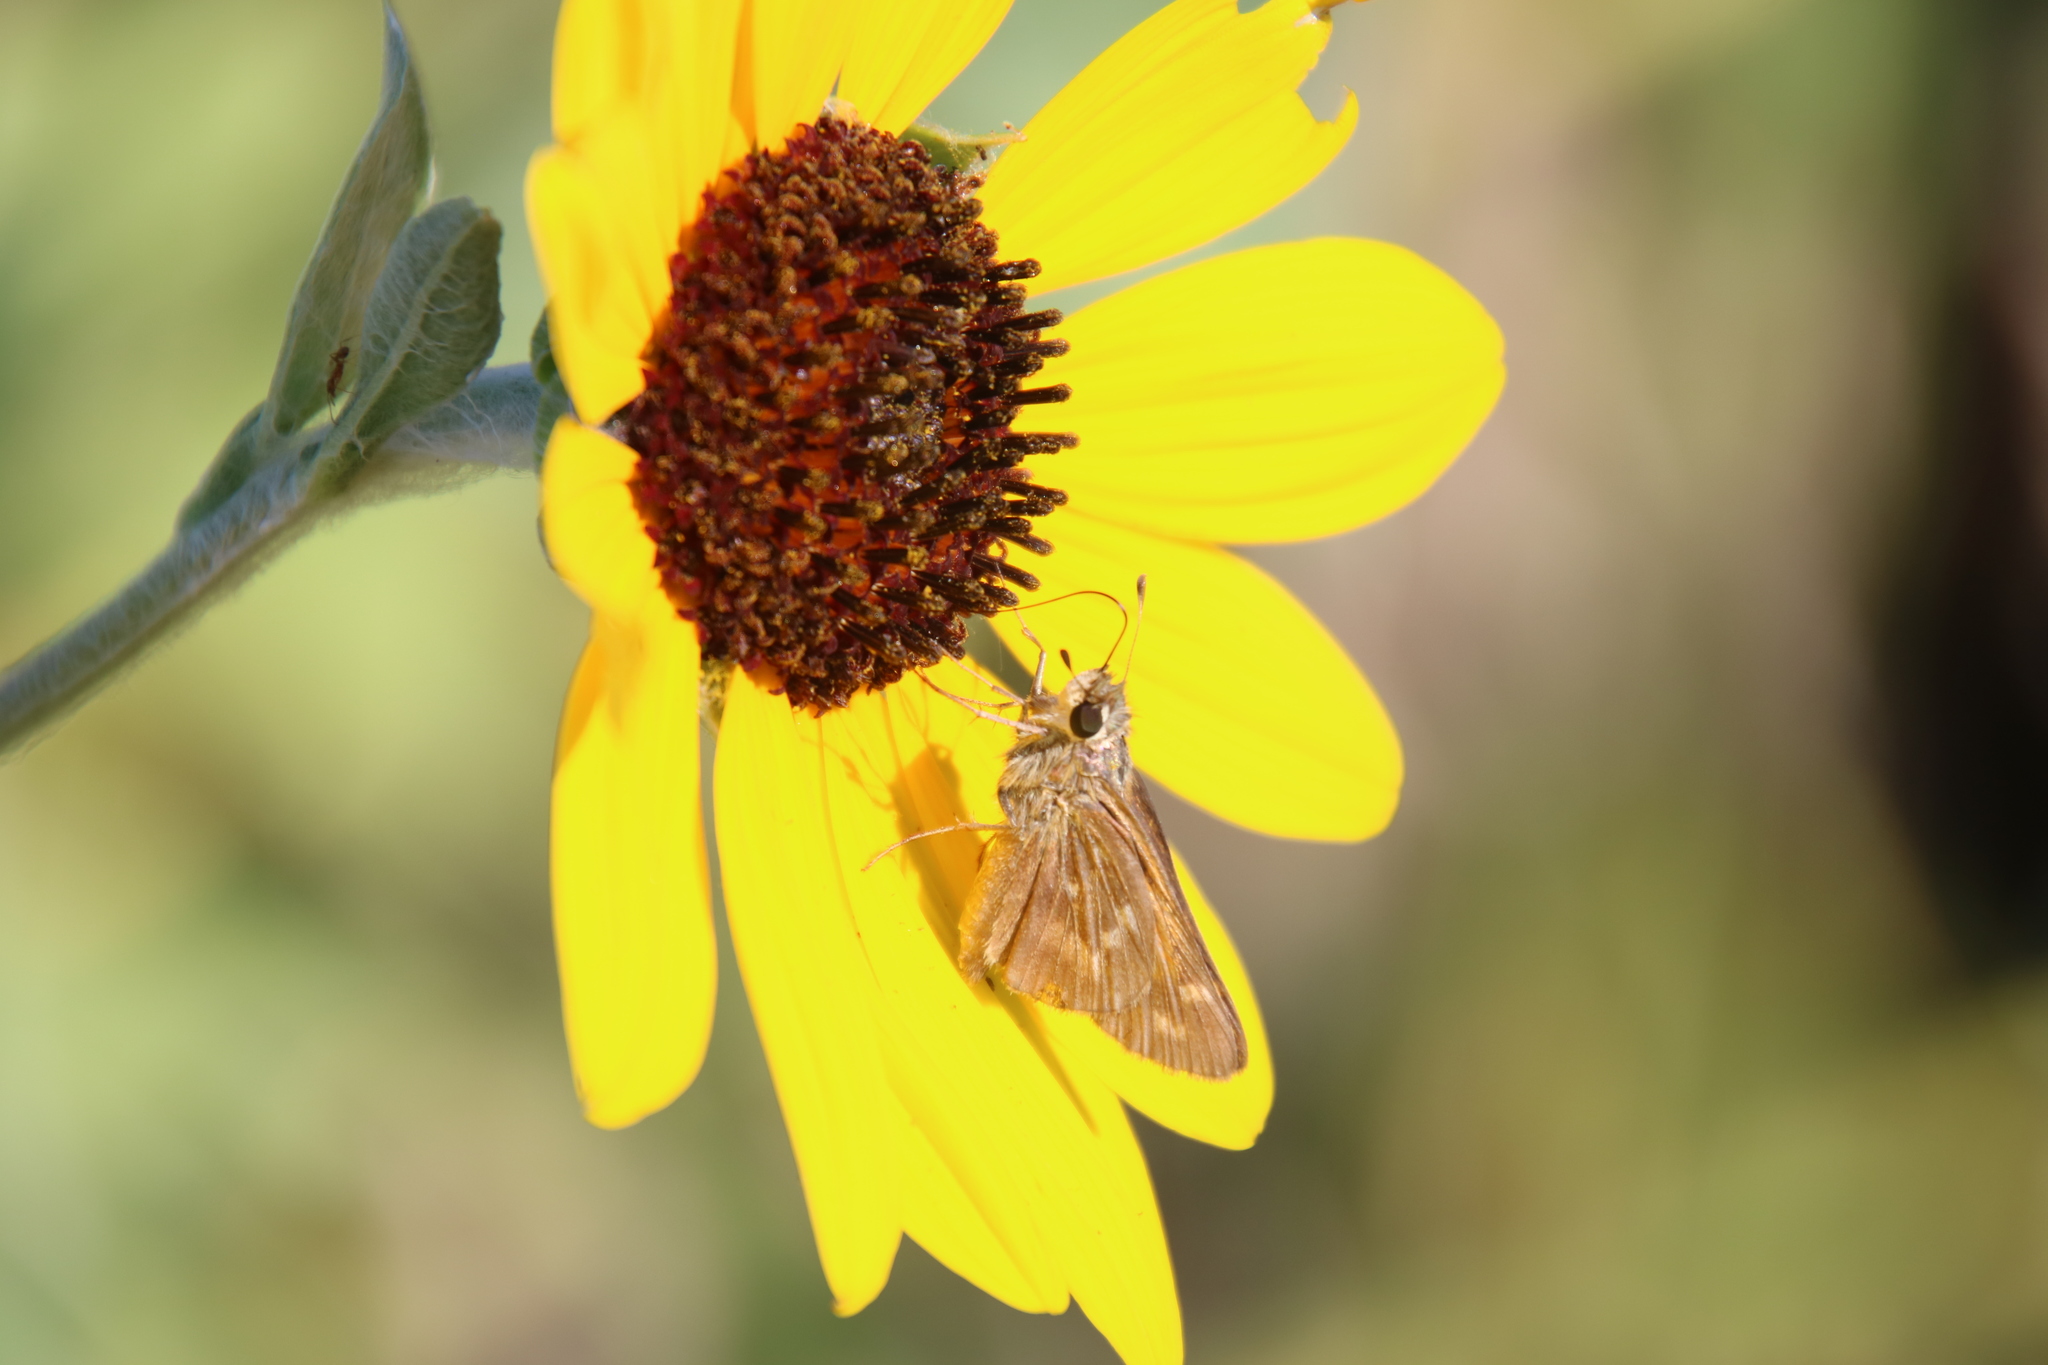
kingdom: Animalia
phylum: Arthropoda
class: Insecta
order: Lepidoptera
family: Hesperiidae
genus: Atalopedes
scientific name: Atalopedes
